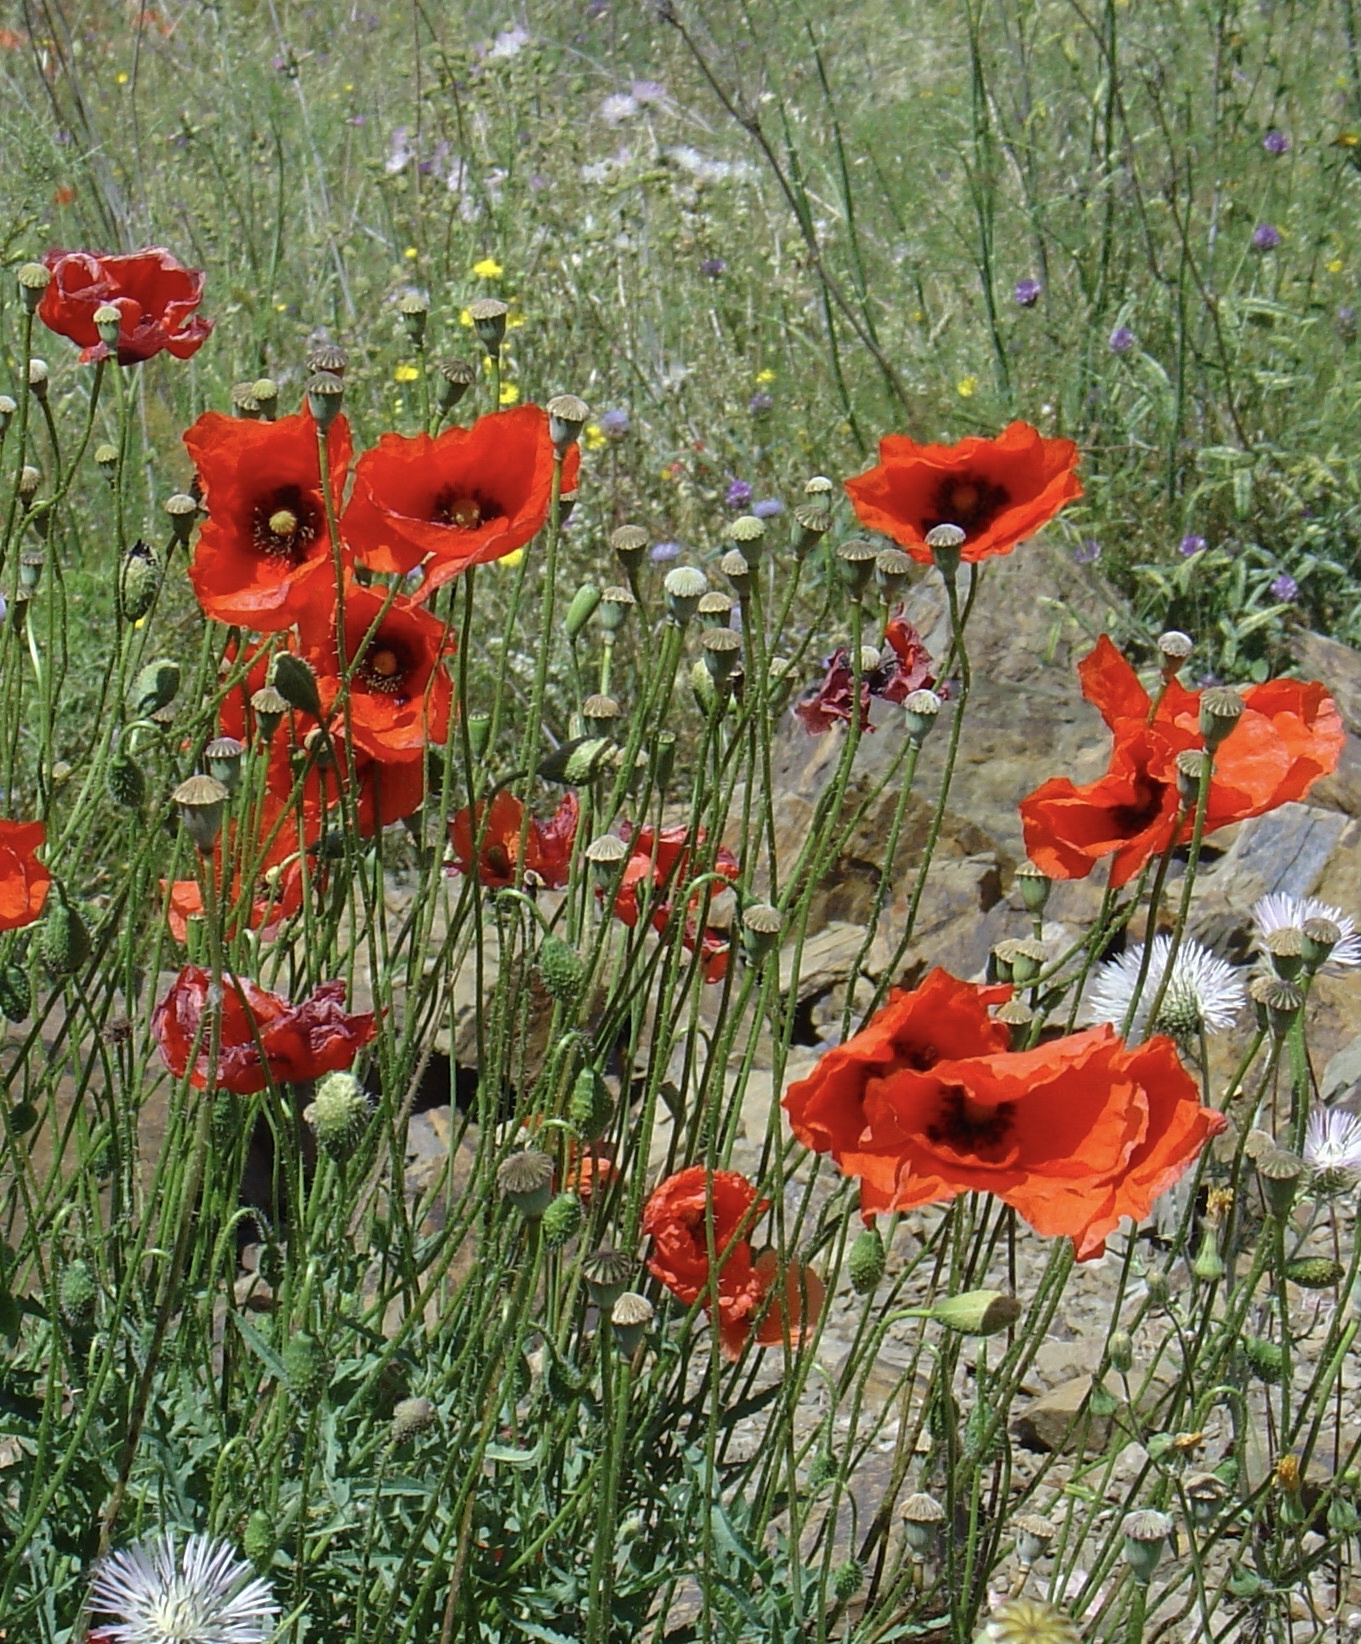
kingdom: Plantae
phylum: Tracheophyta
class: Magnoliopsida
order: Ranunculales
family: Papaveraceae
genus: Papaver
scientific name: Papaver rhoeas
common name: Corn poppy
